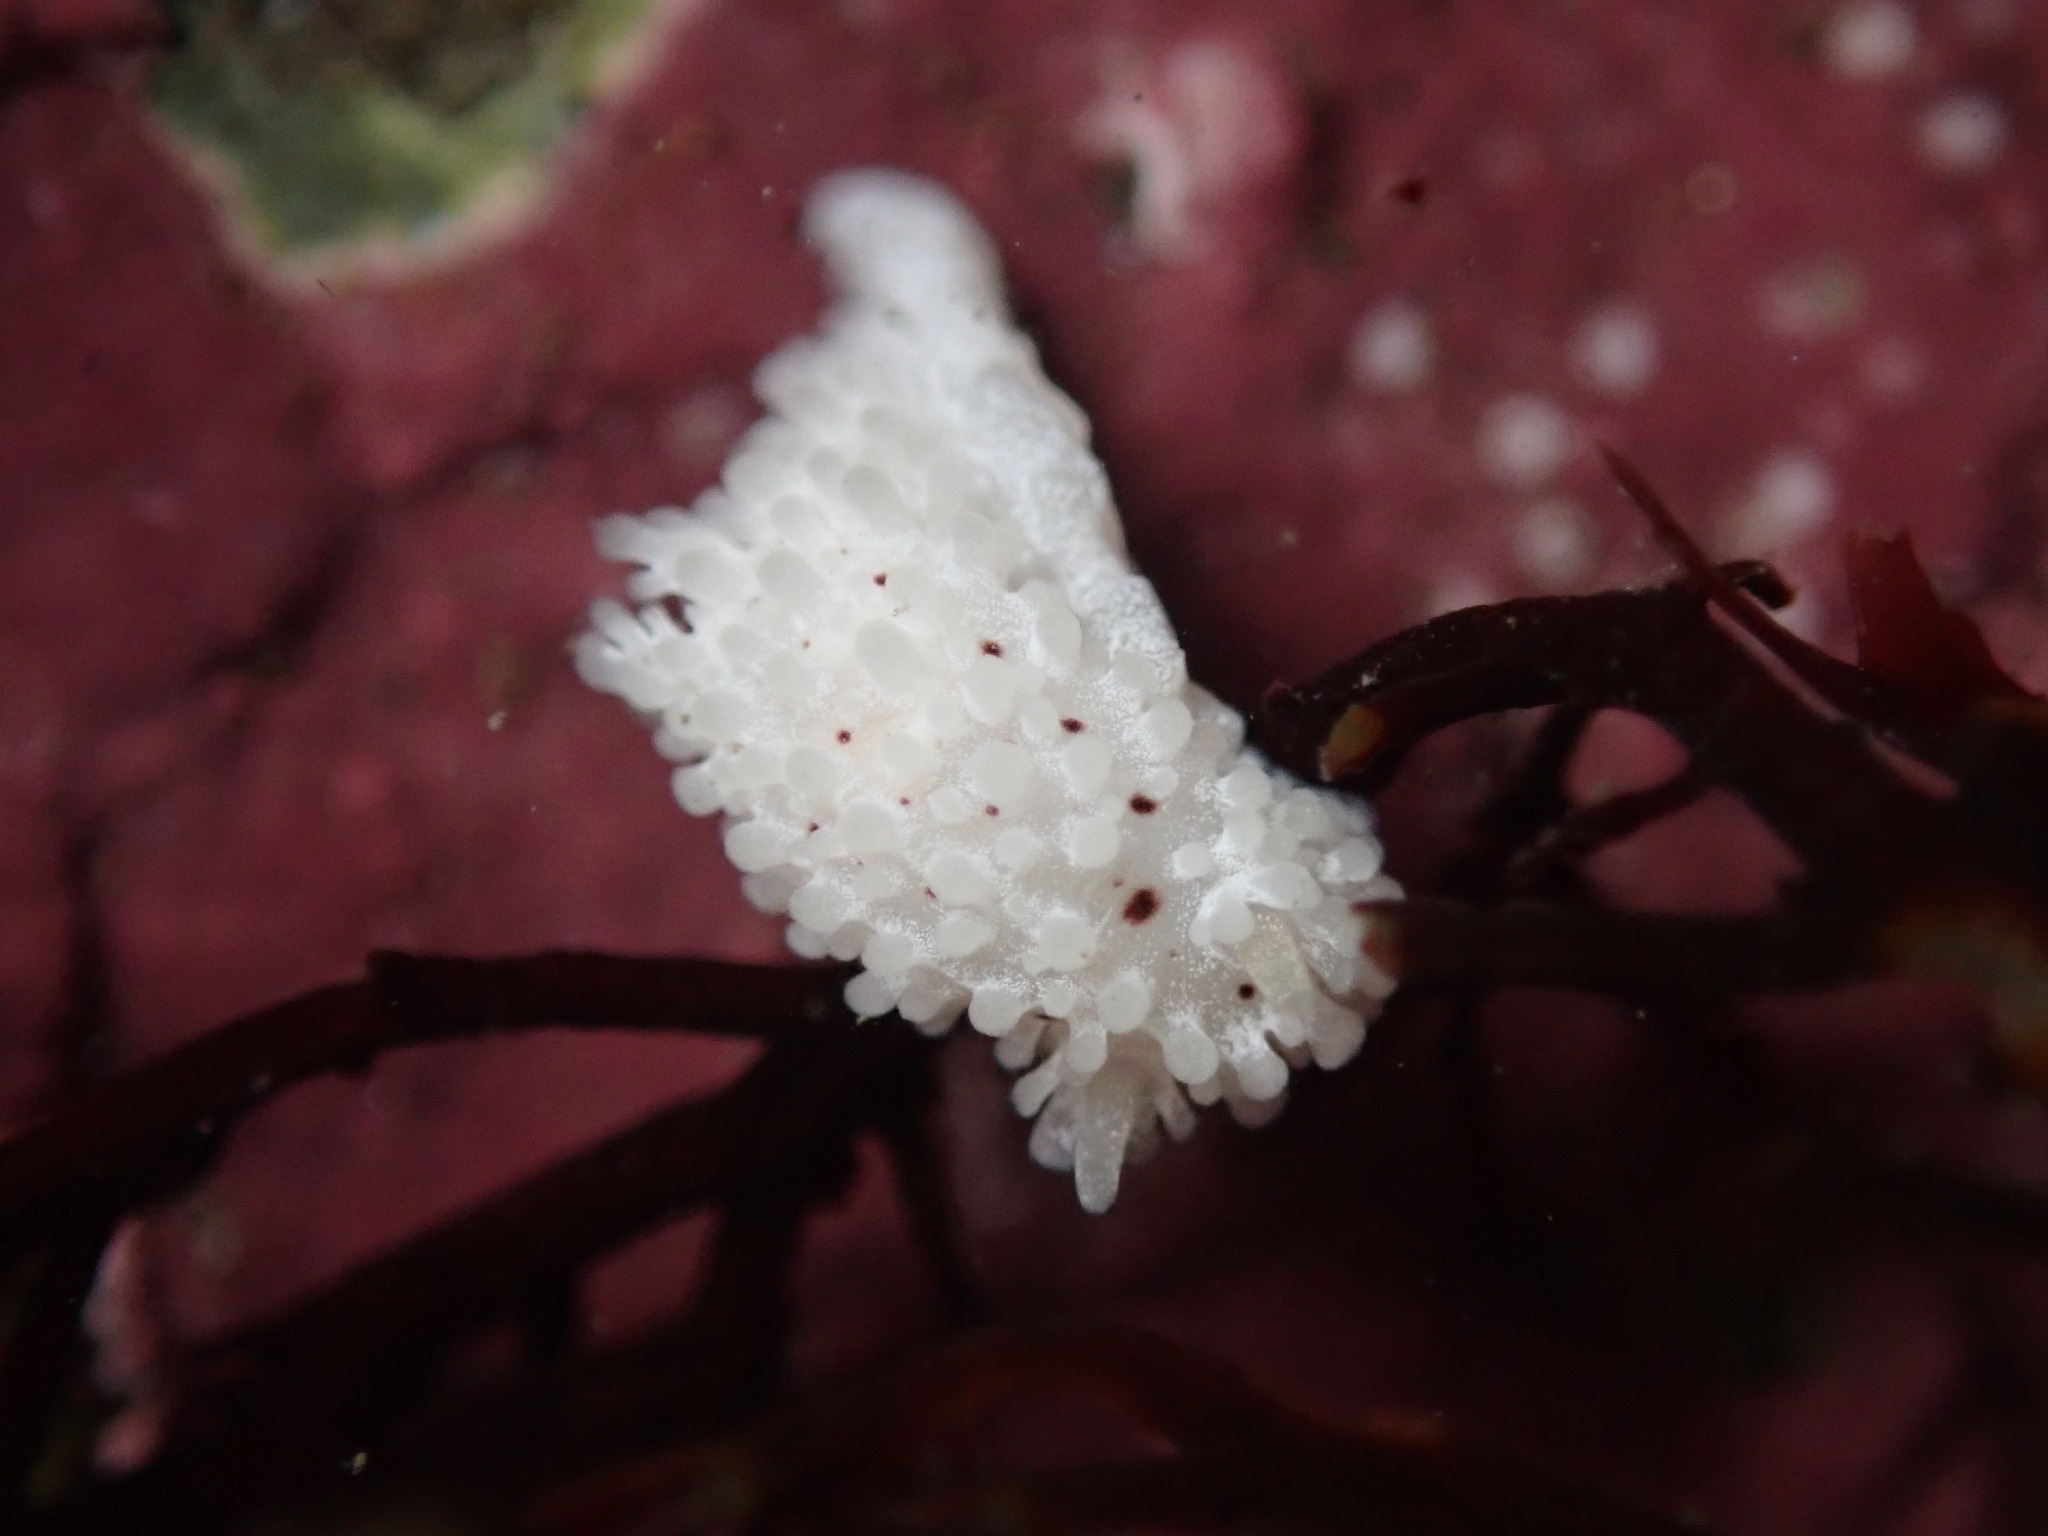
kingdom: Animalia
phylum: Mollusca
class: Gastropoda
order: Nudibranchia
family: Aegiridae
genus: Aegires
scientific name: Aegires albopunctatus
